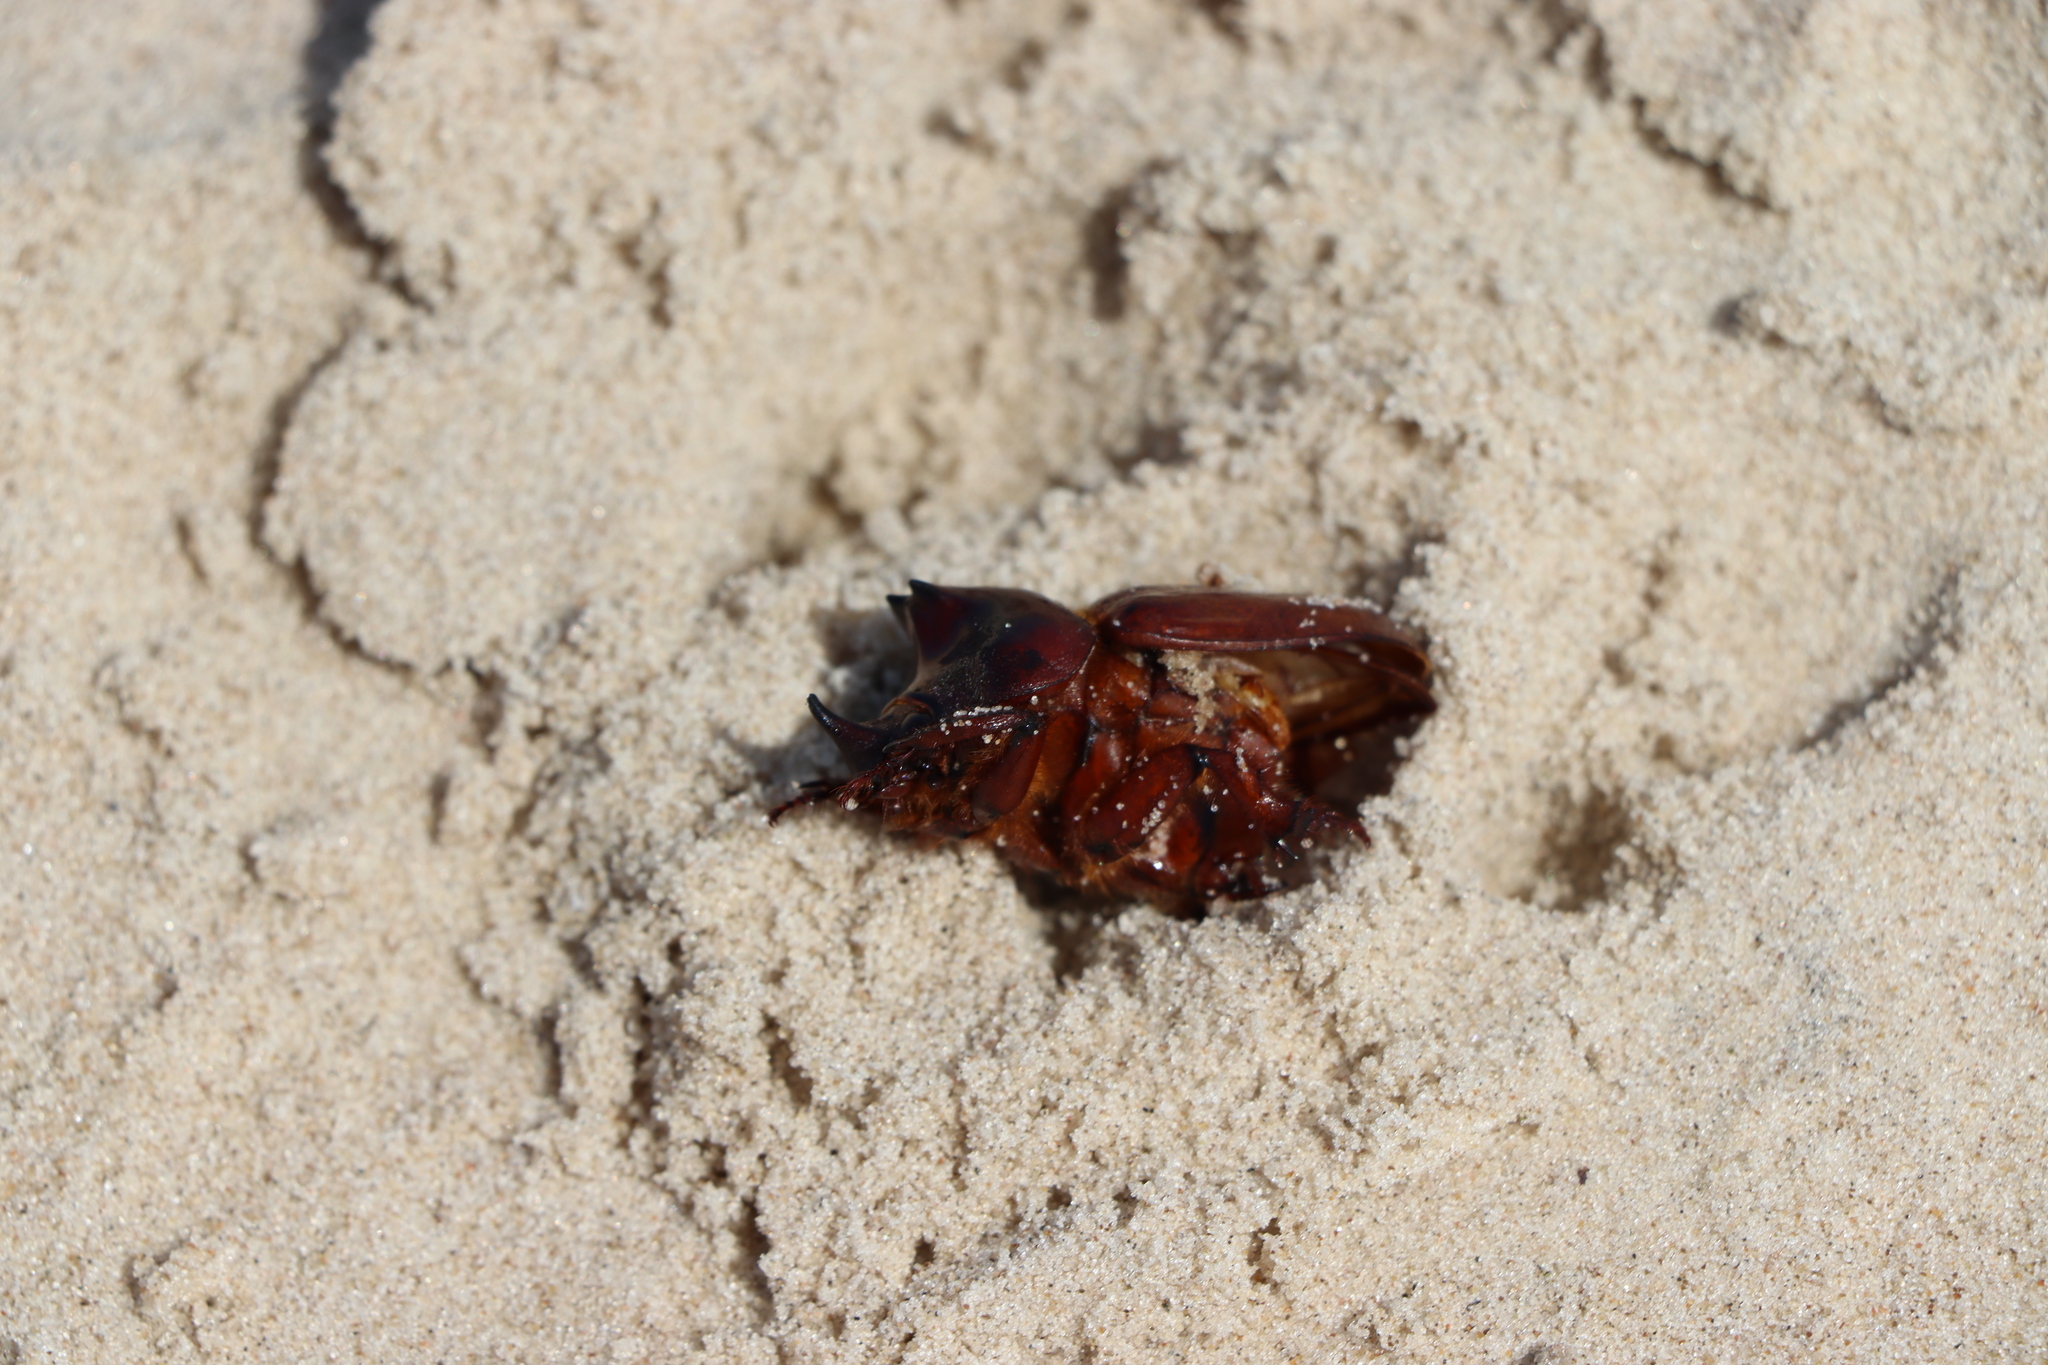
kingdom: Animalia
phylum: Arthropoda
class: Insecta
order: Coleoptera
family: Scarabaeidae
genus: Thronistes
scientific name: Thronistes rouxi
